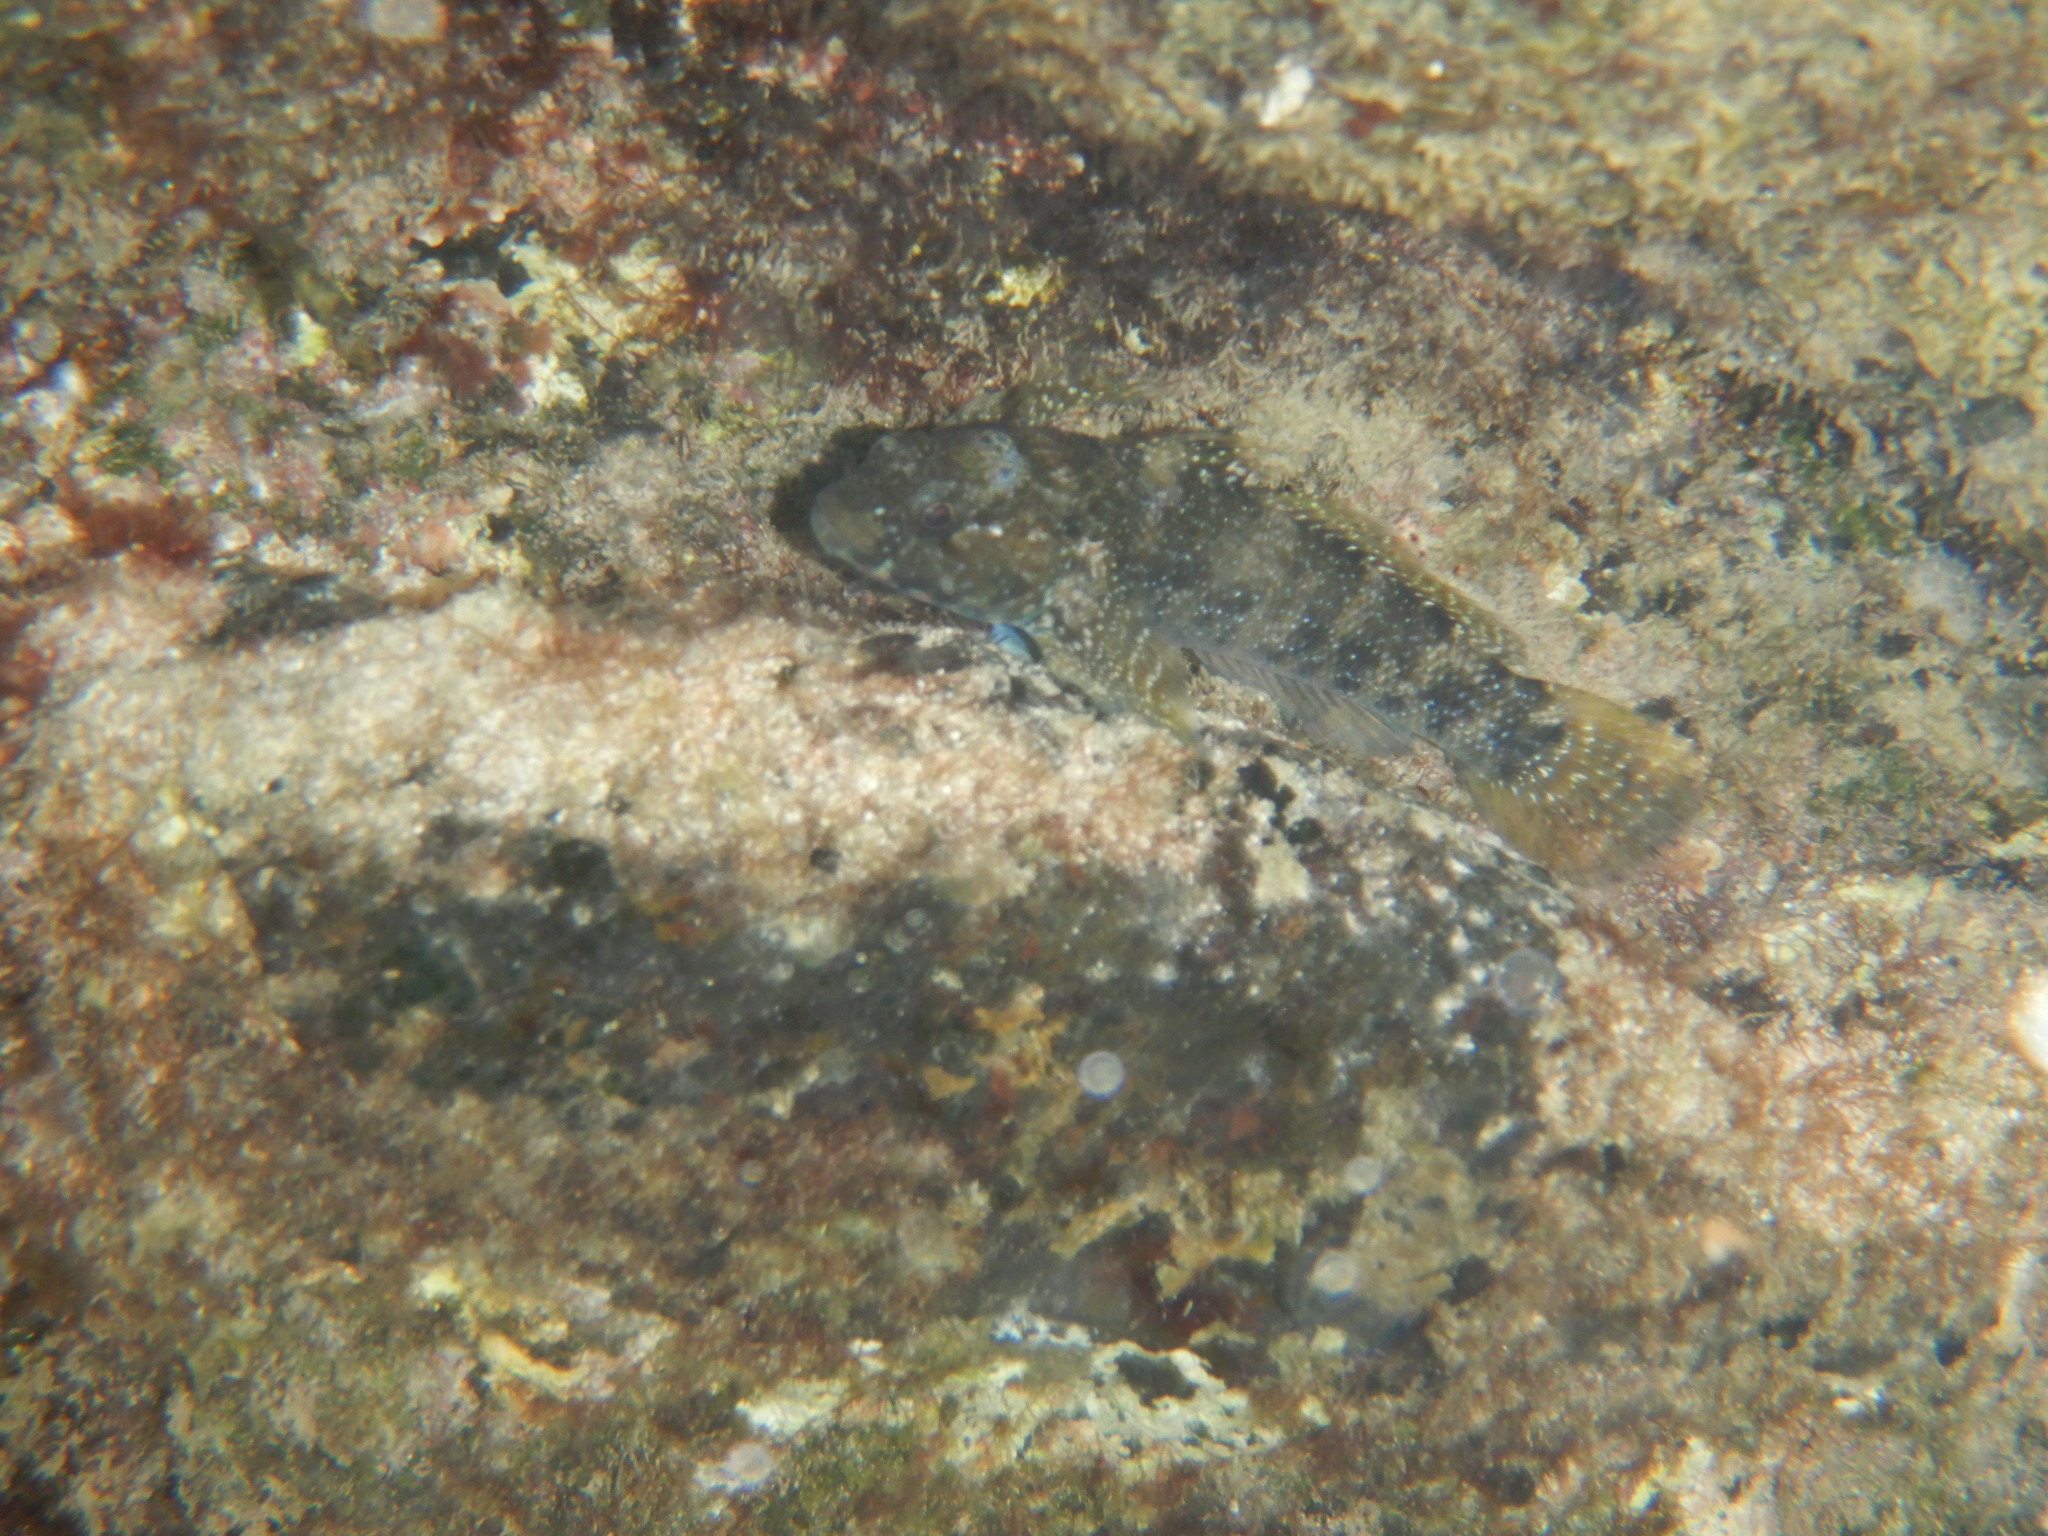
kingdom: Animalia
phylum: Chordata
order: Perciformes
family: Gobiidae
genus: Mauligobius
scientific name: Mauligobius maderensis
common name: Rock goby
